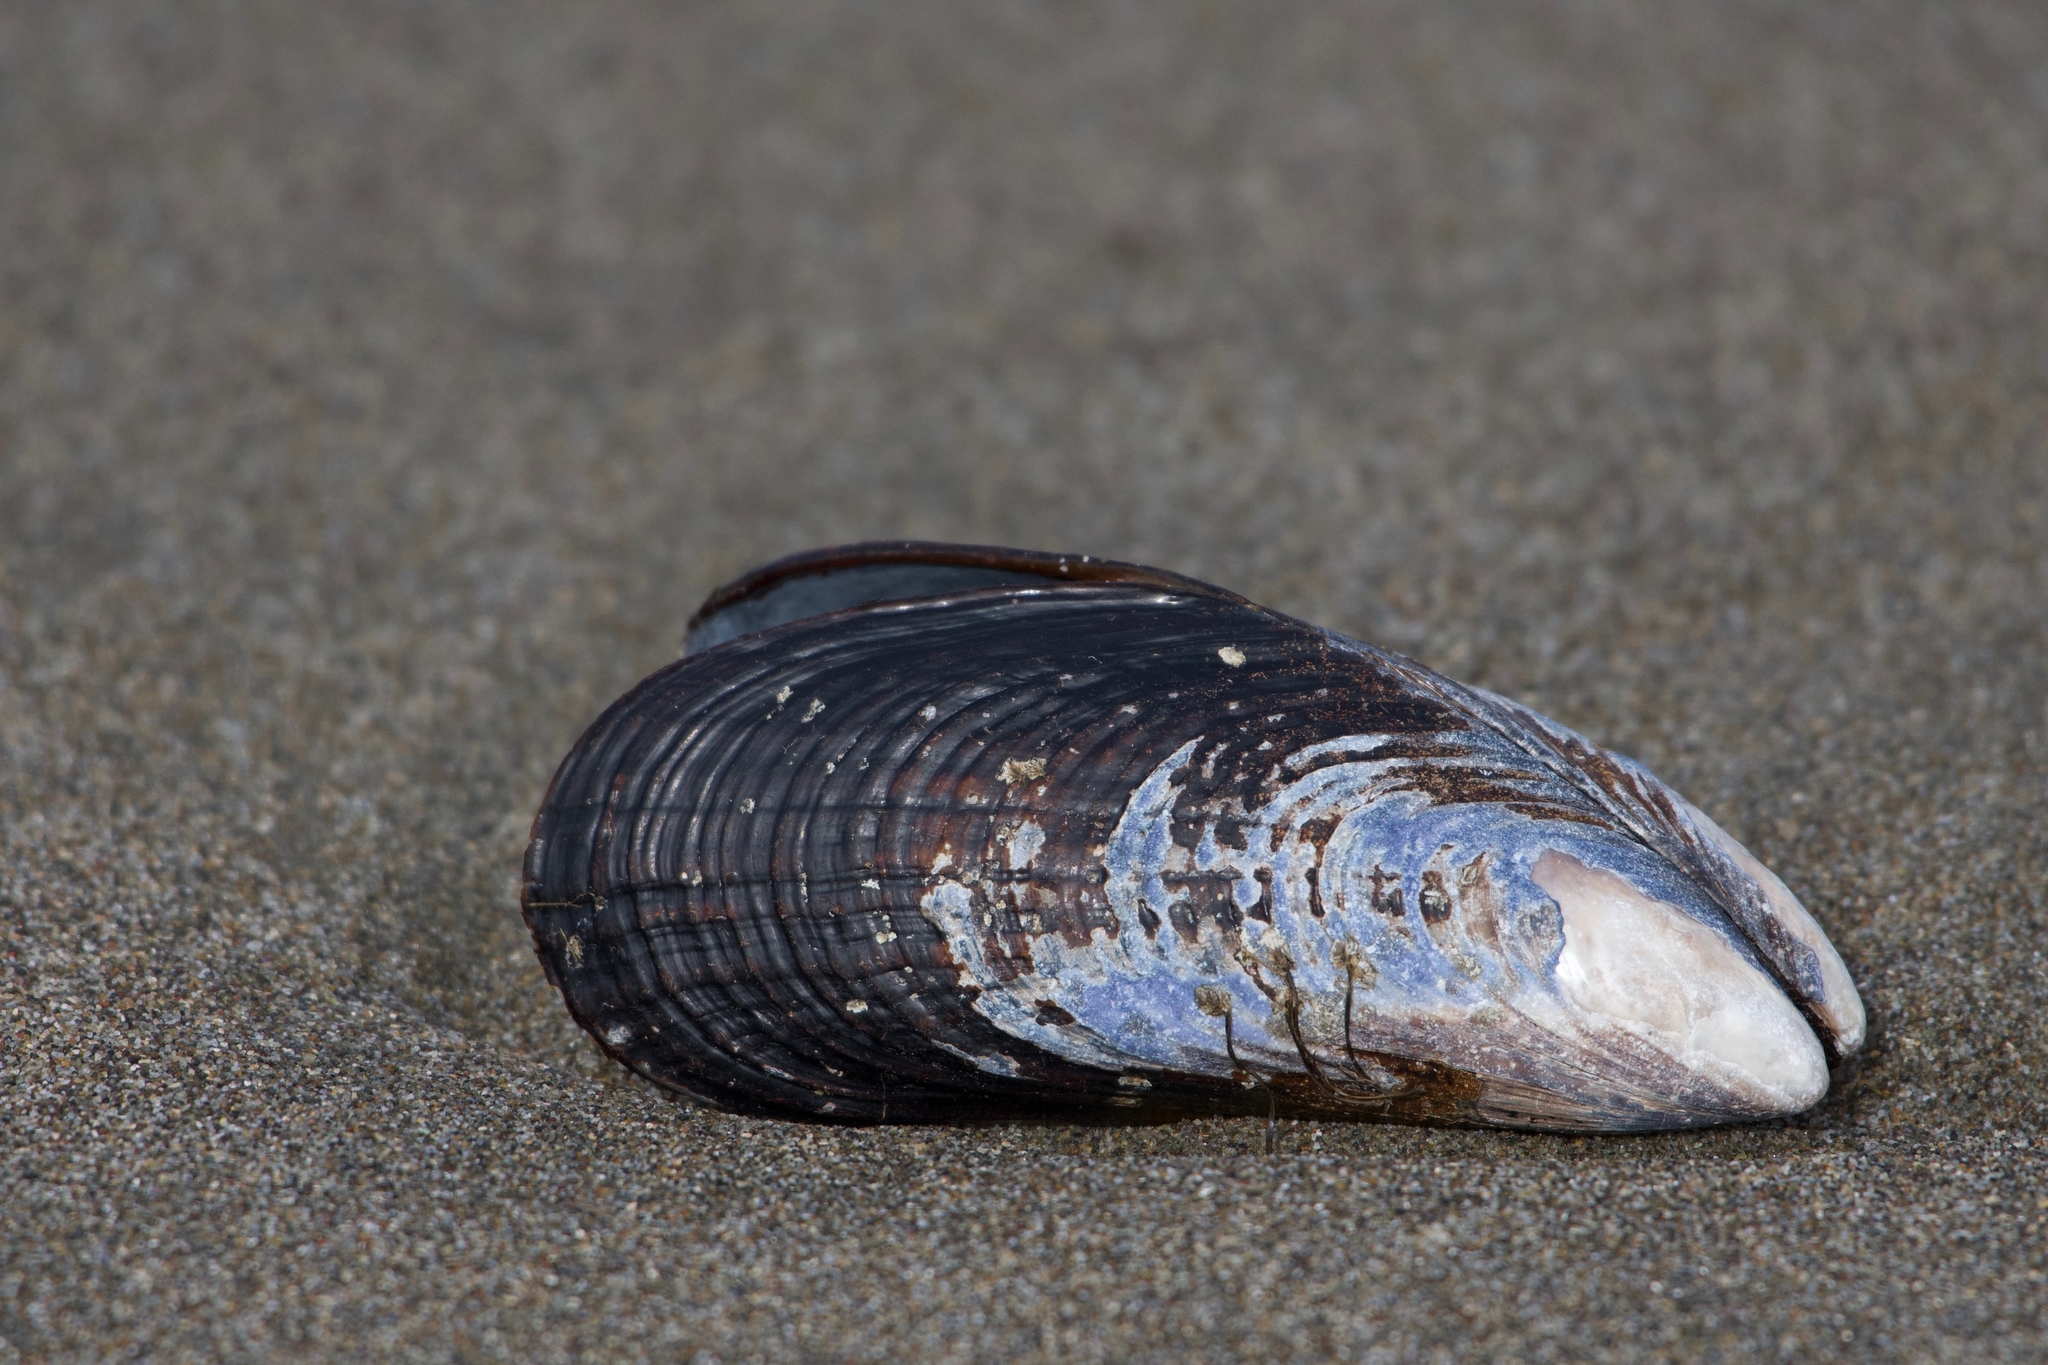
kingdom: Animalia
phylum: Mollusca
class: Bivalvia
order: Mytilida
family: Mytilidae
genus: Mytilus
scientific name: Mytilus californianus
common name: California mussel
